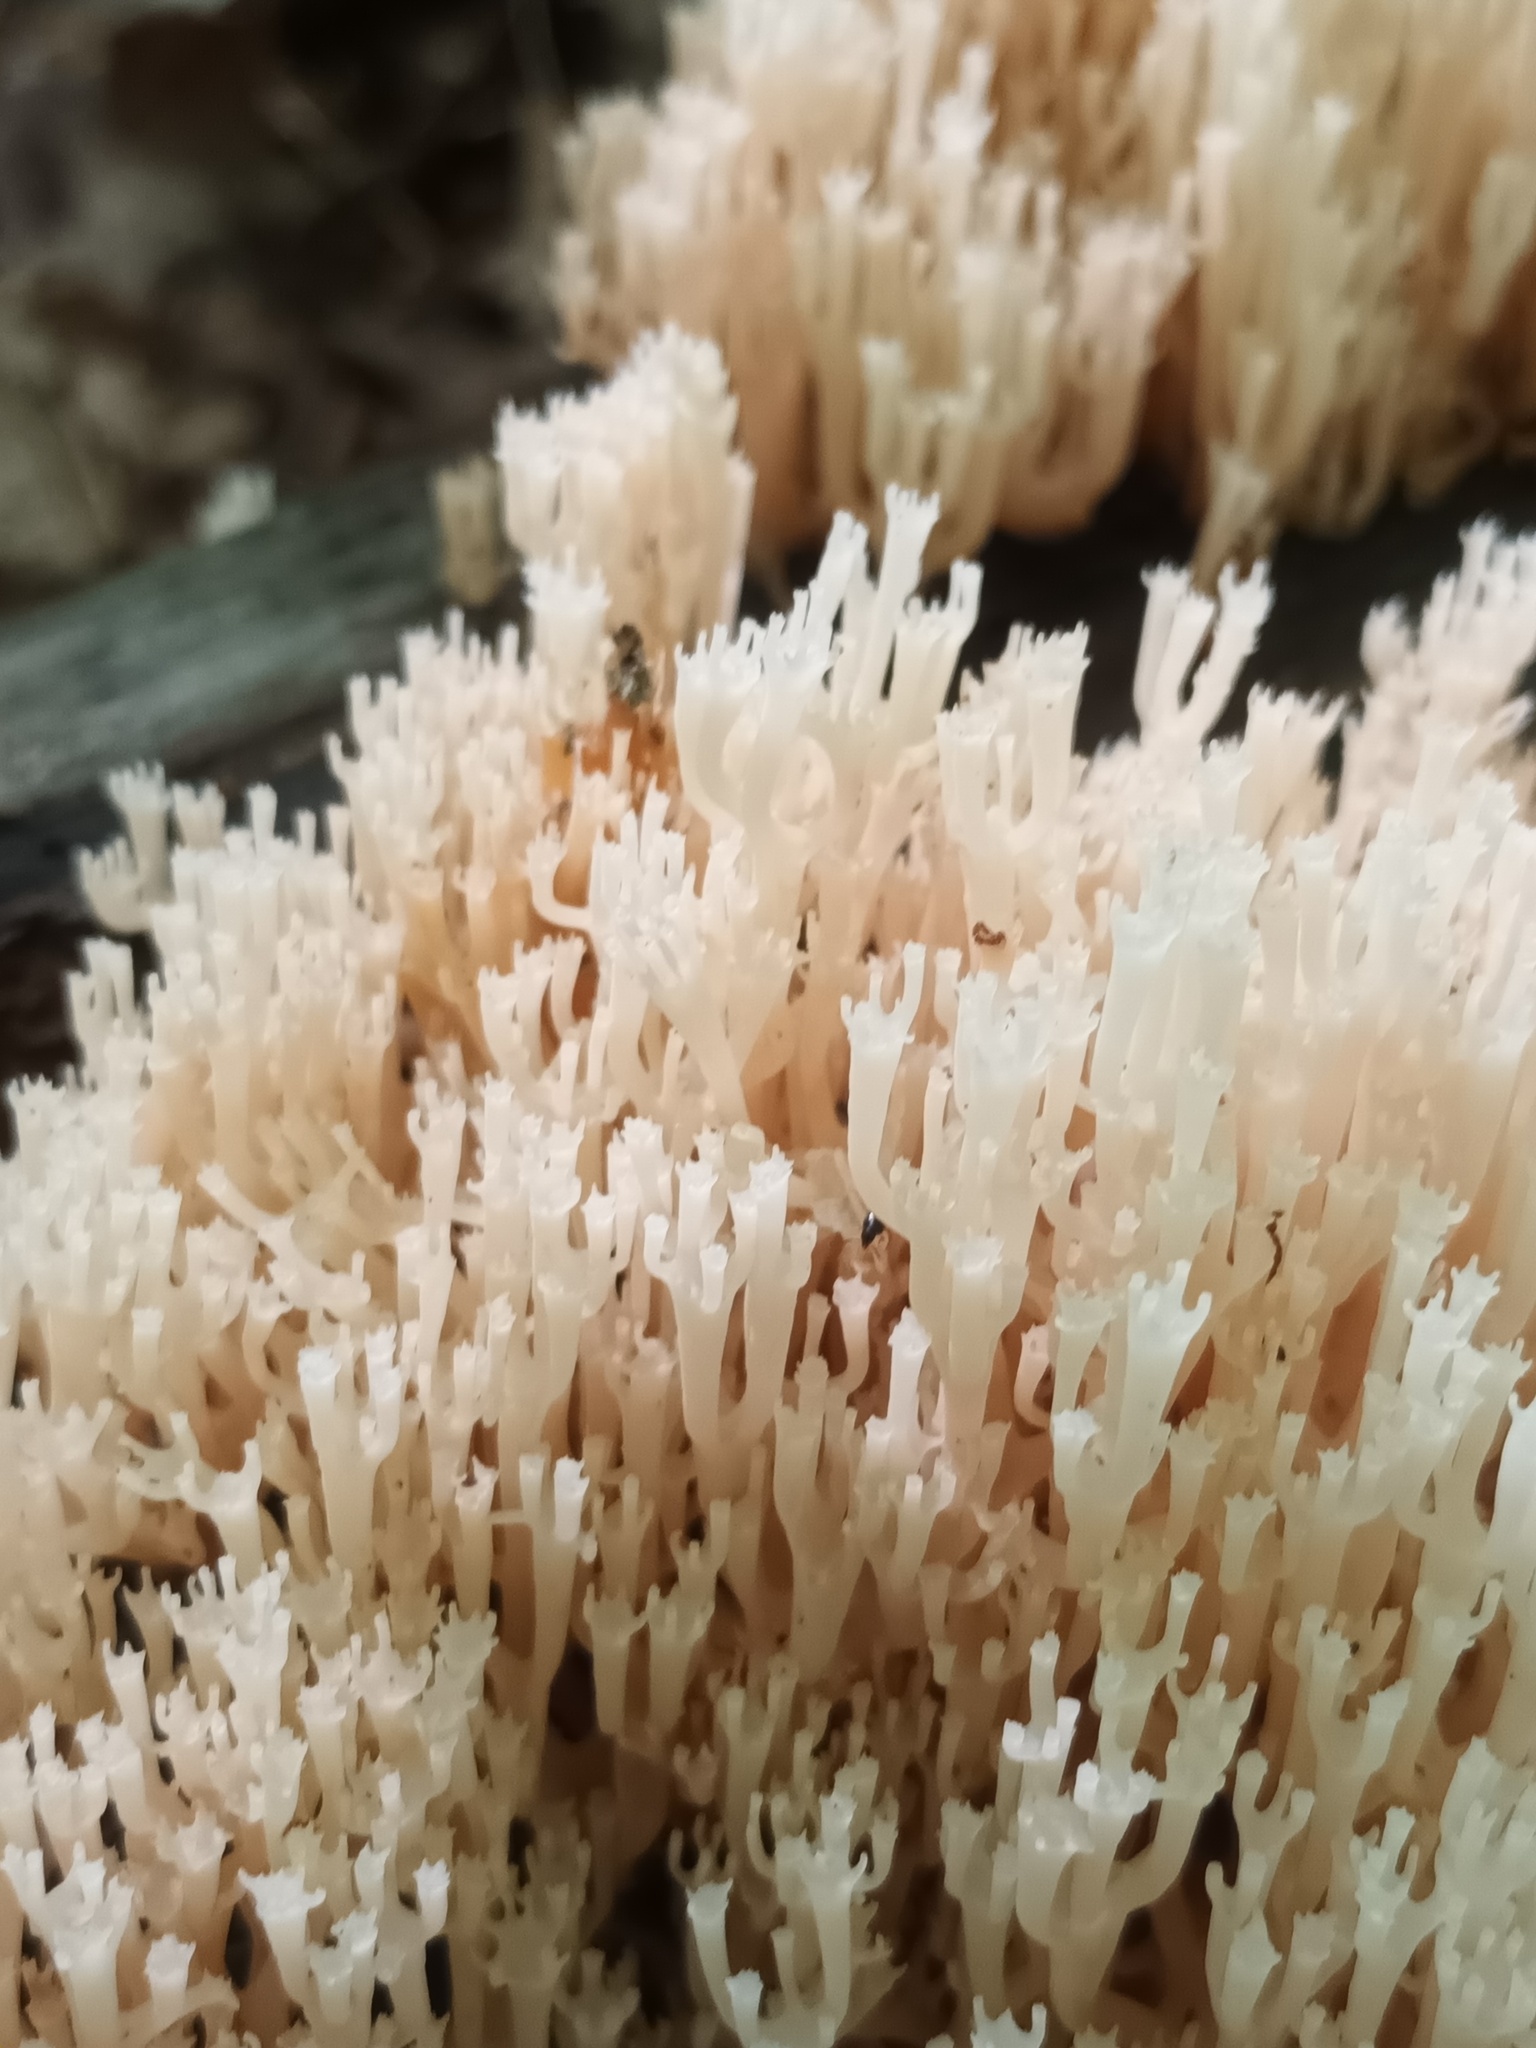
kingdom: Fungi
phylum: Basidiomycota
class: Agaricomycetes
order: Russulales
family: Auriscalpiaceae
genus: Artomyces
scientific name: Artomyces pyxidatus
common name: Crown-tipped coral fungus
